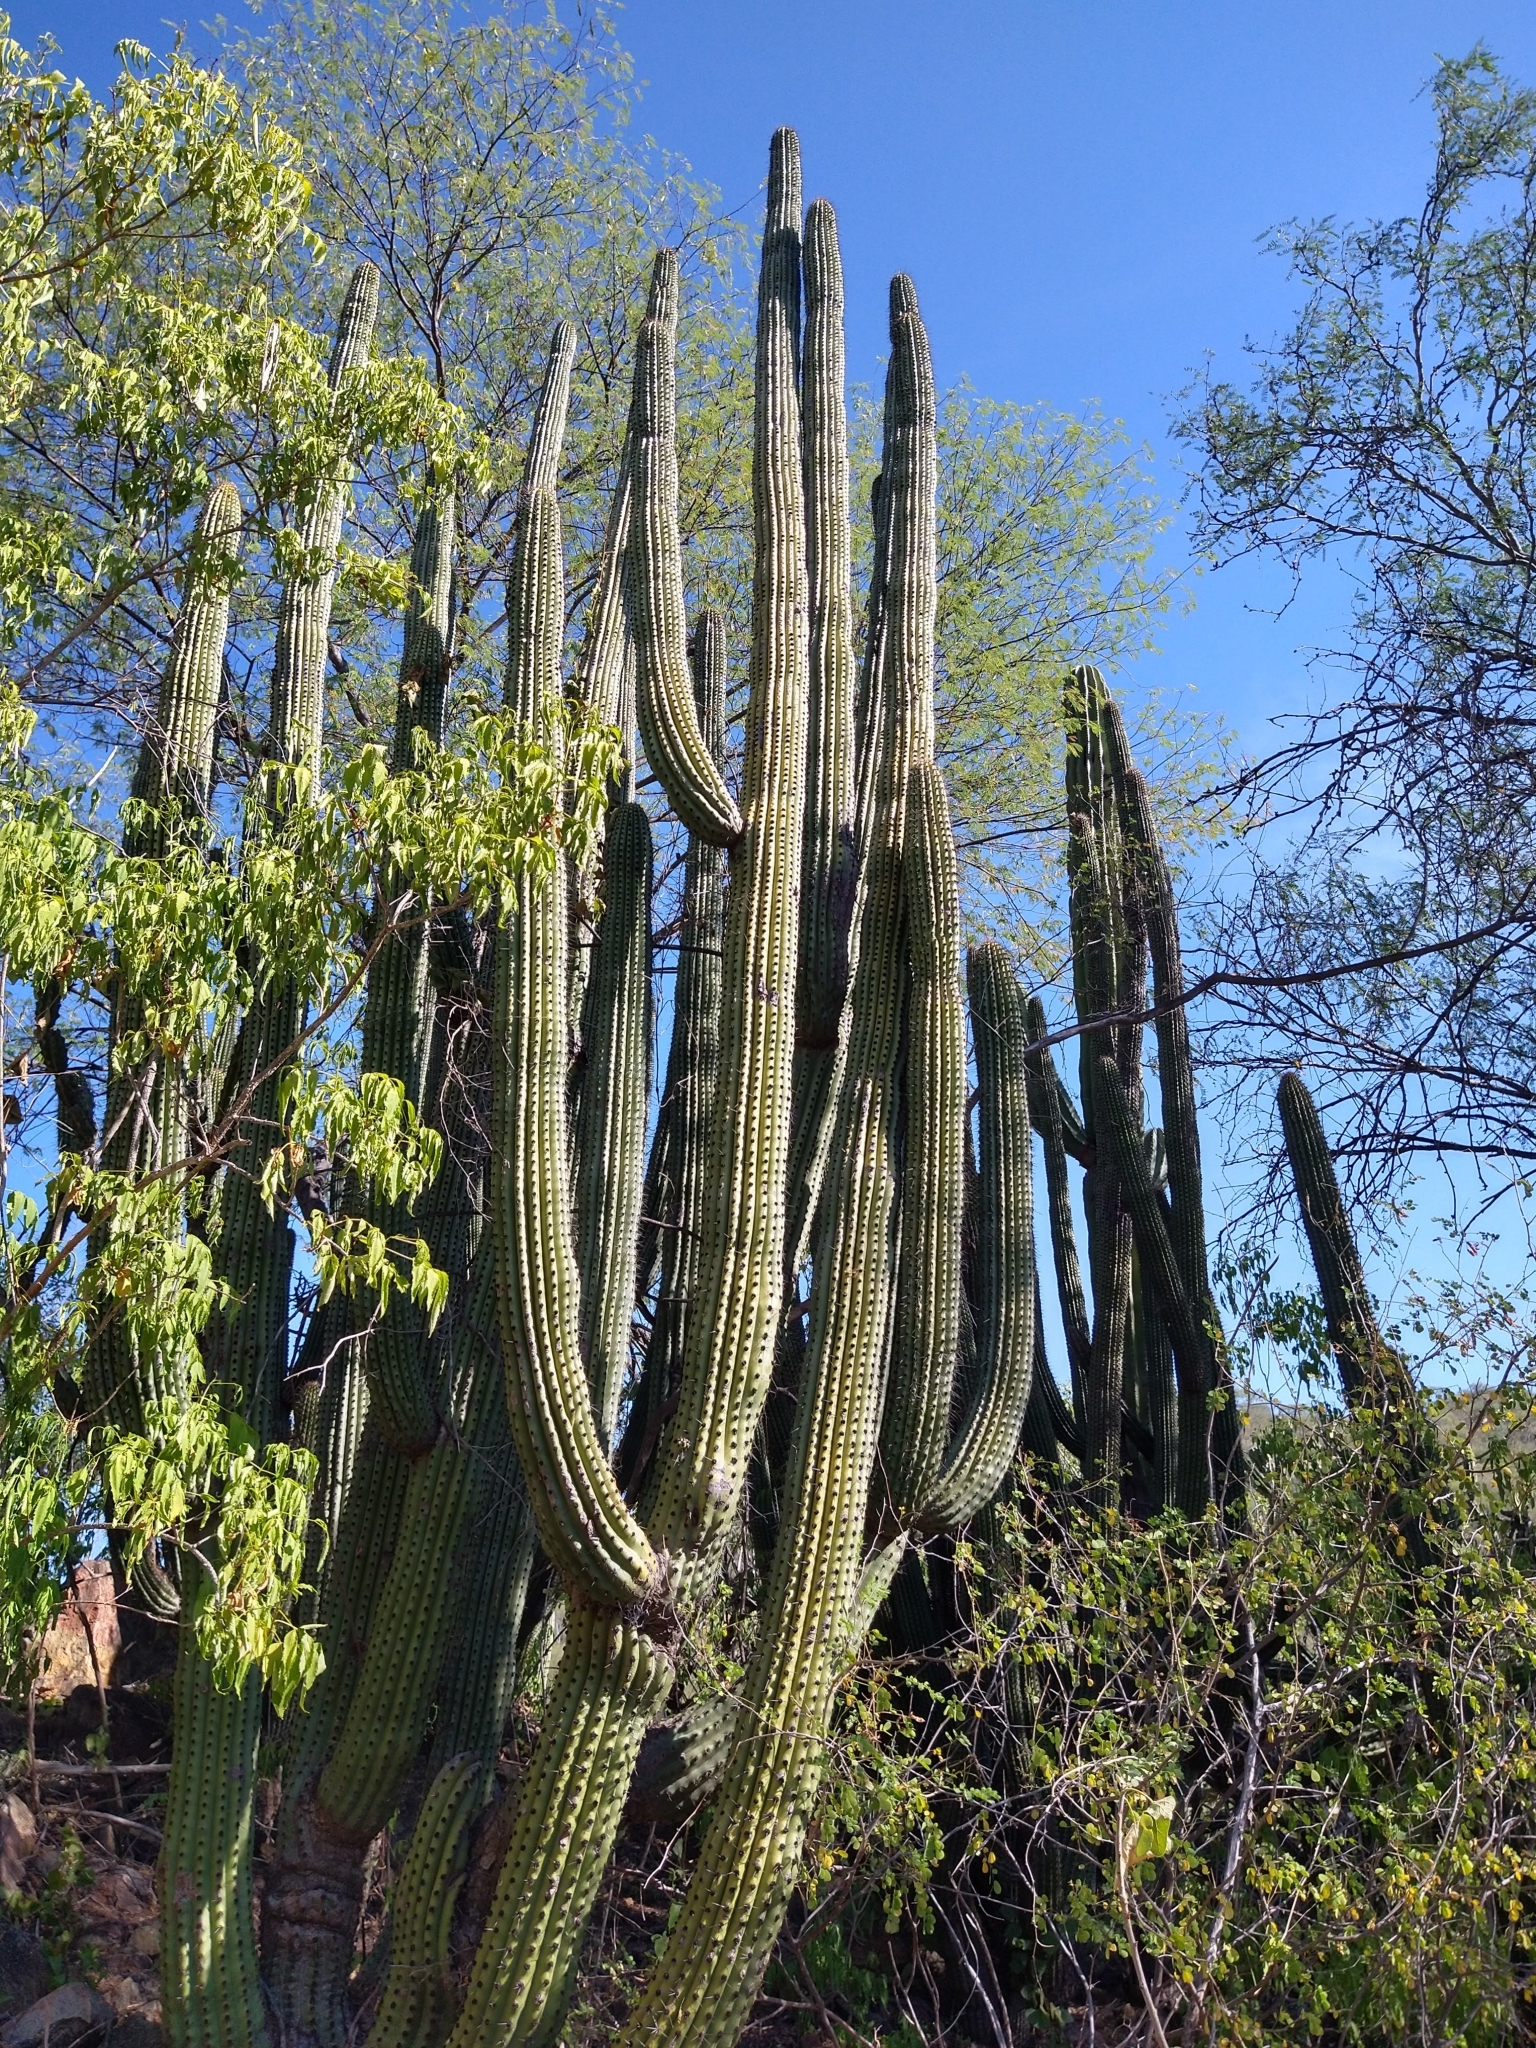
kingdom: Plantae
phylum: Tracheophyta
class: Magnoliopsida
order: Caryophyllales
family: Cactaceae
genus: Stenocereus
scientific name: Stenocereus thurberi
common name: Organ pipe cactus
